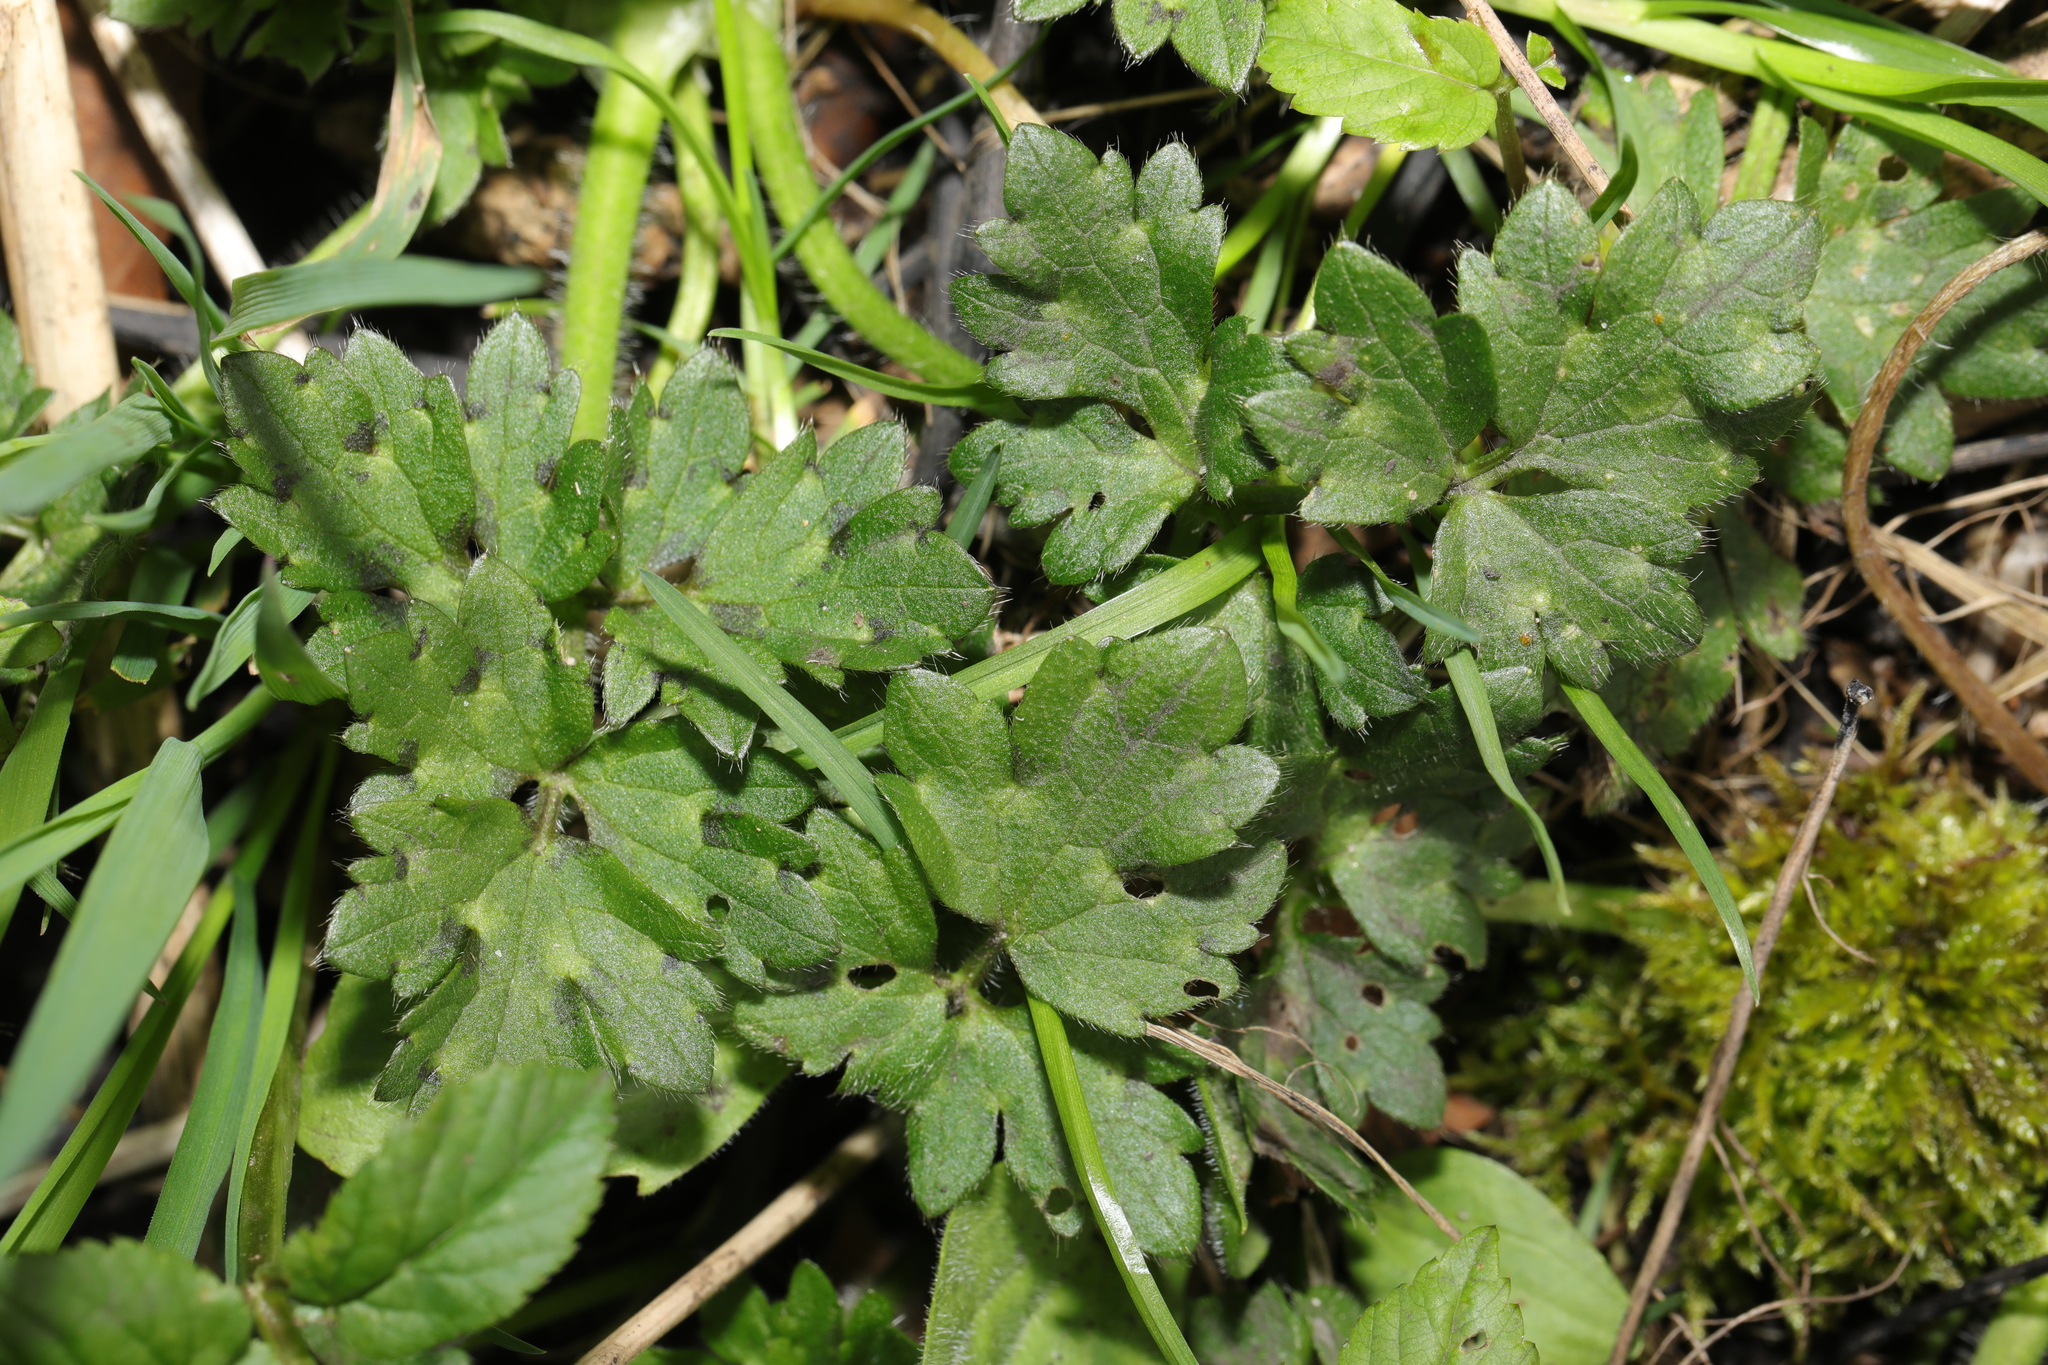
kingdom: Plantae
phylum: Tracheophyta
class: Magnoliopsida
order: Ranunculales
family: Ranunculaceae
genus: Ranunculus
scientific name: Ranunculus repens
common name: Creeping buttercup
